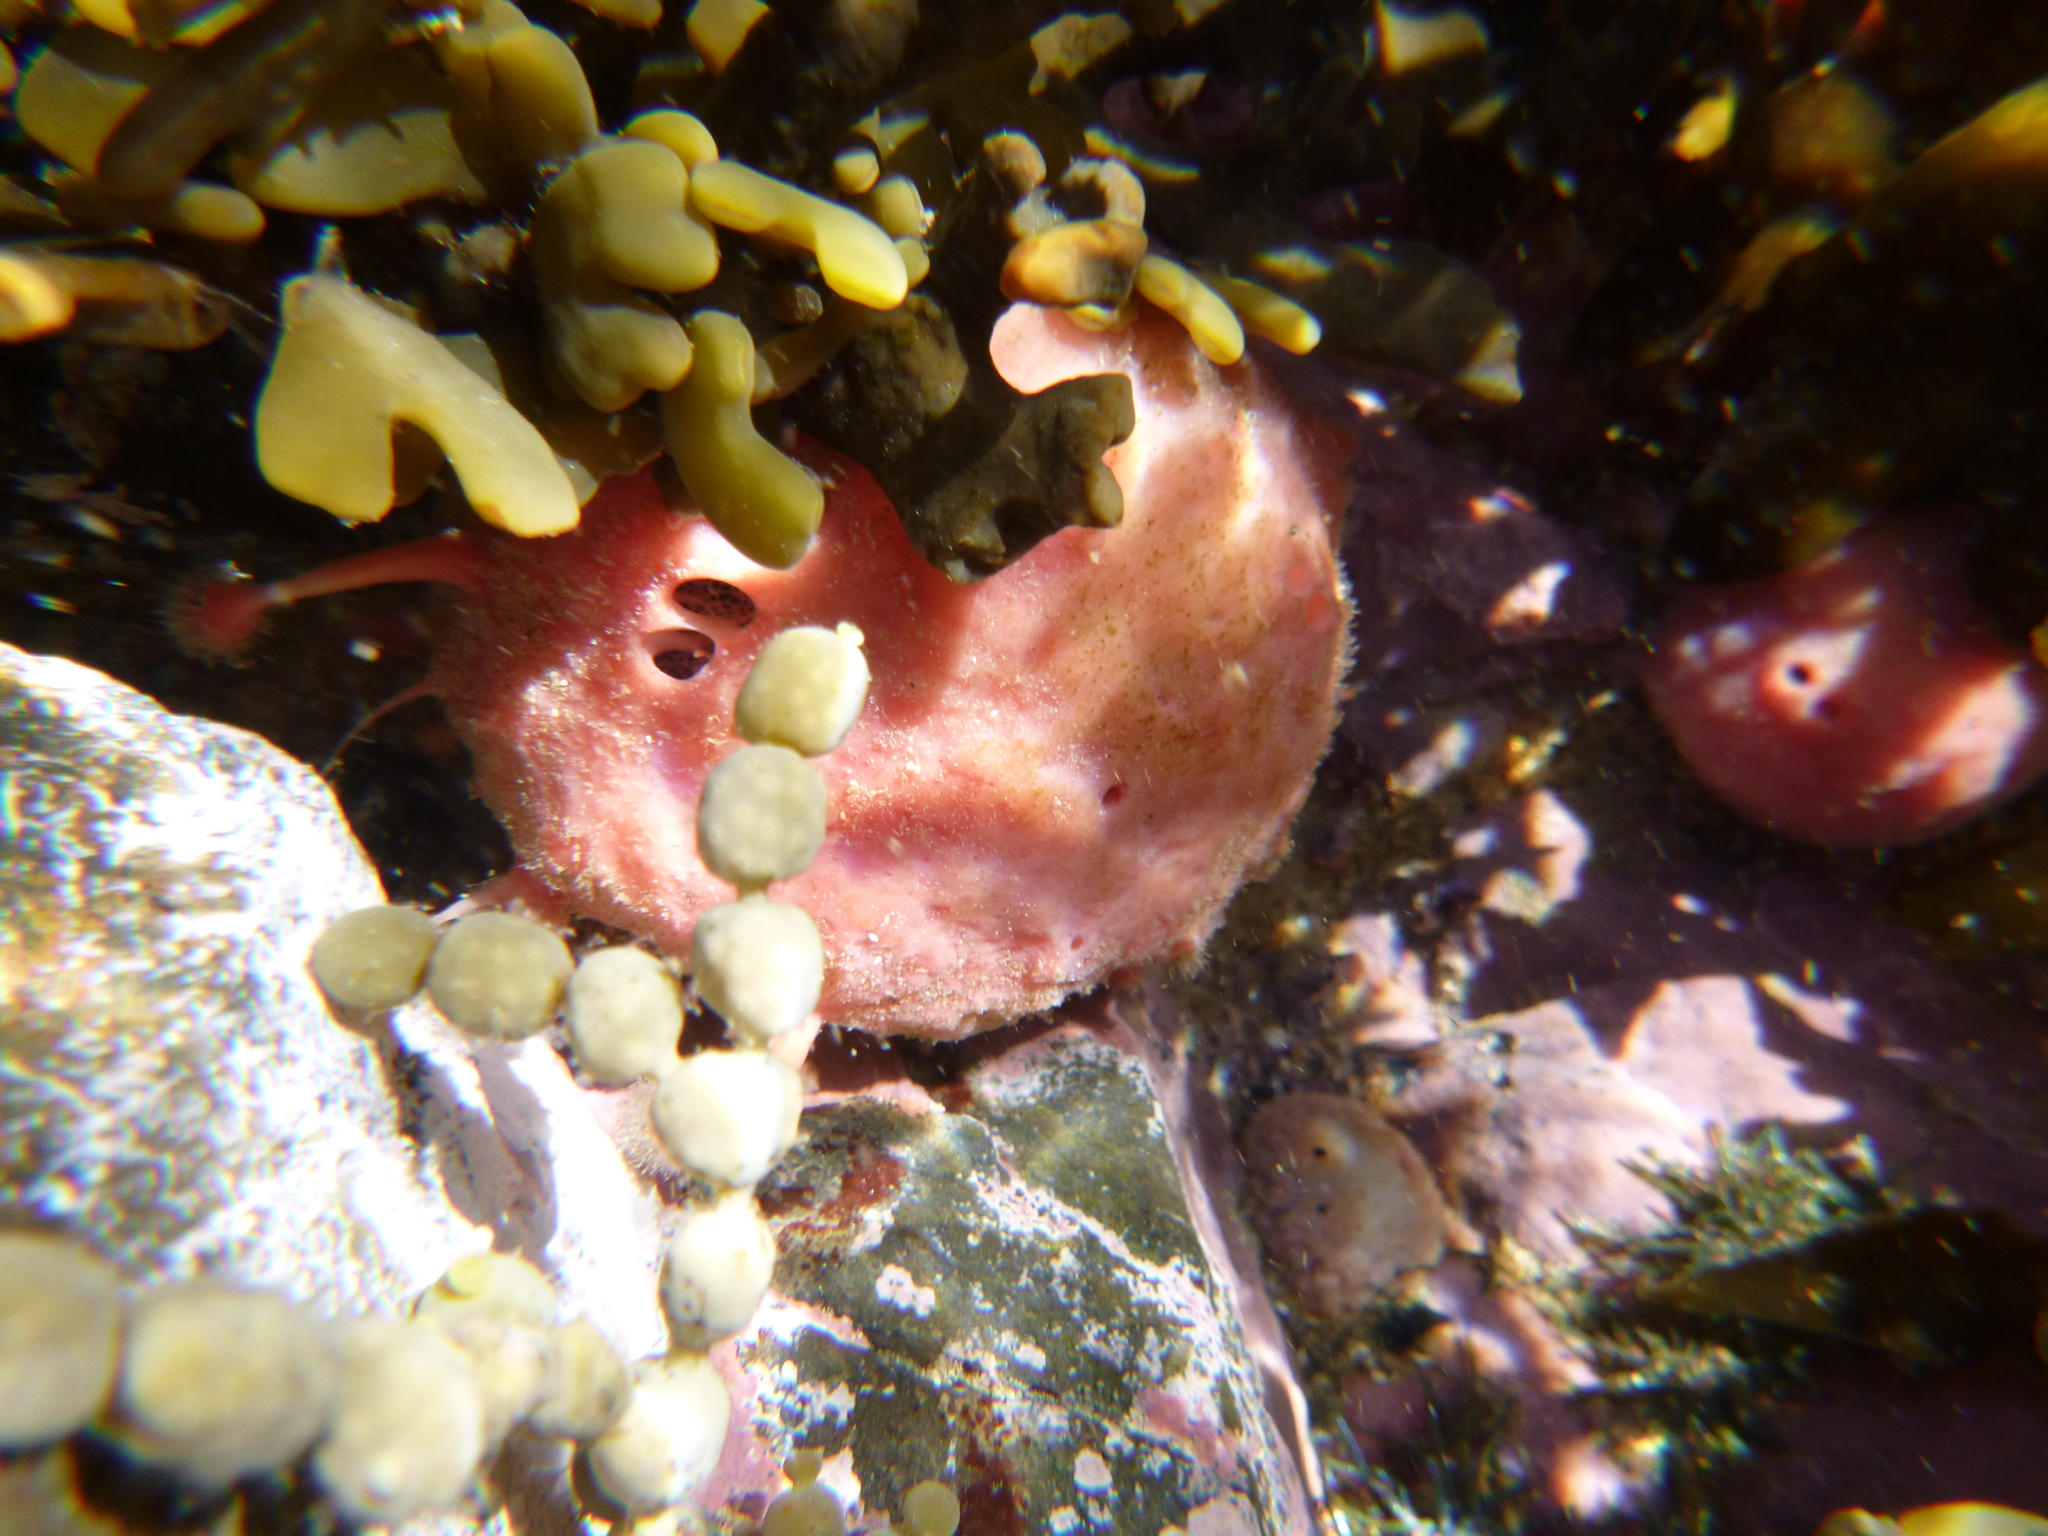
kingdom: Animalia
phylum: Porifera
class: Demospongiae
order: Tethyida
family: Tethyidae
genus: Tethya
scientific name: Tethya bergquistae
